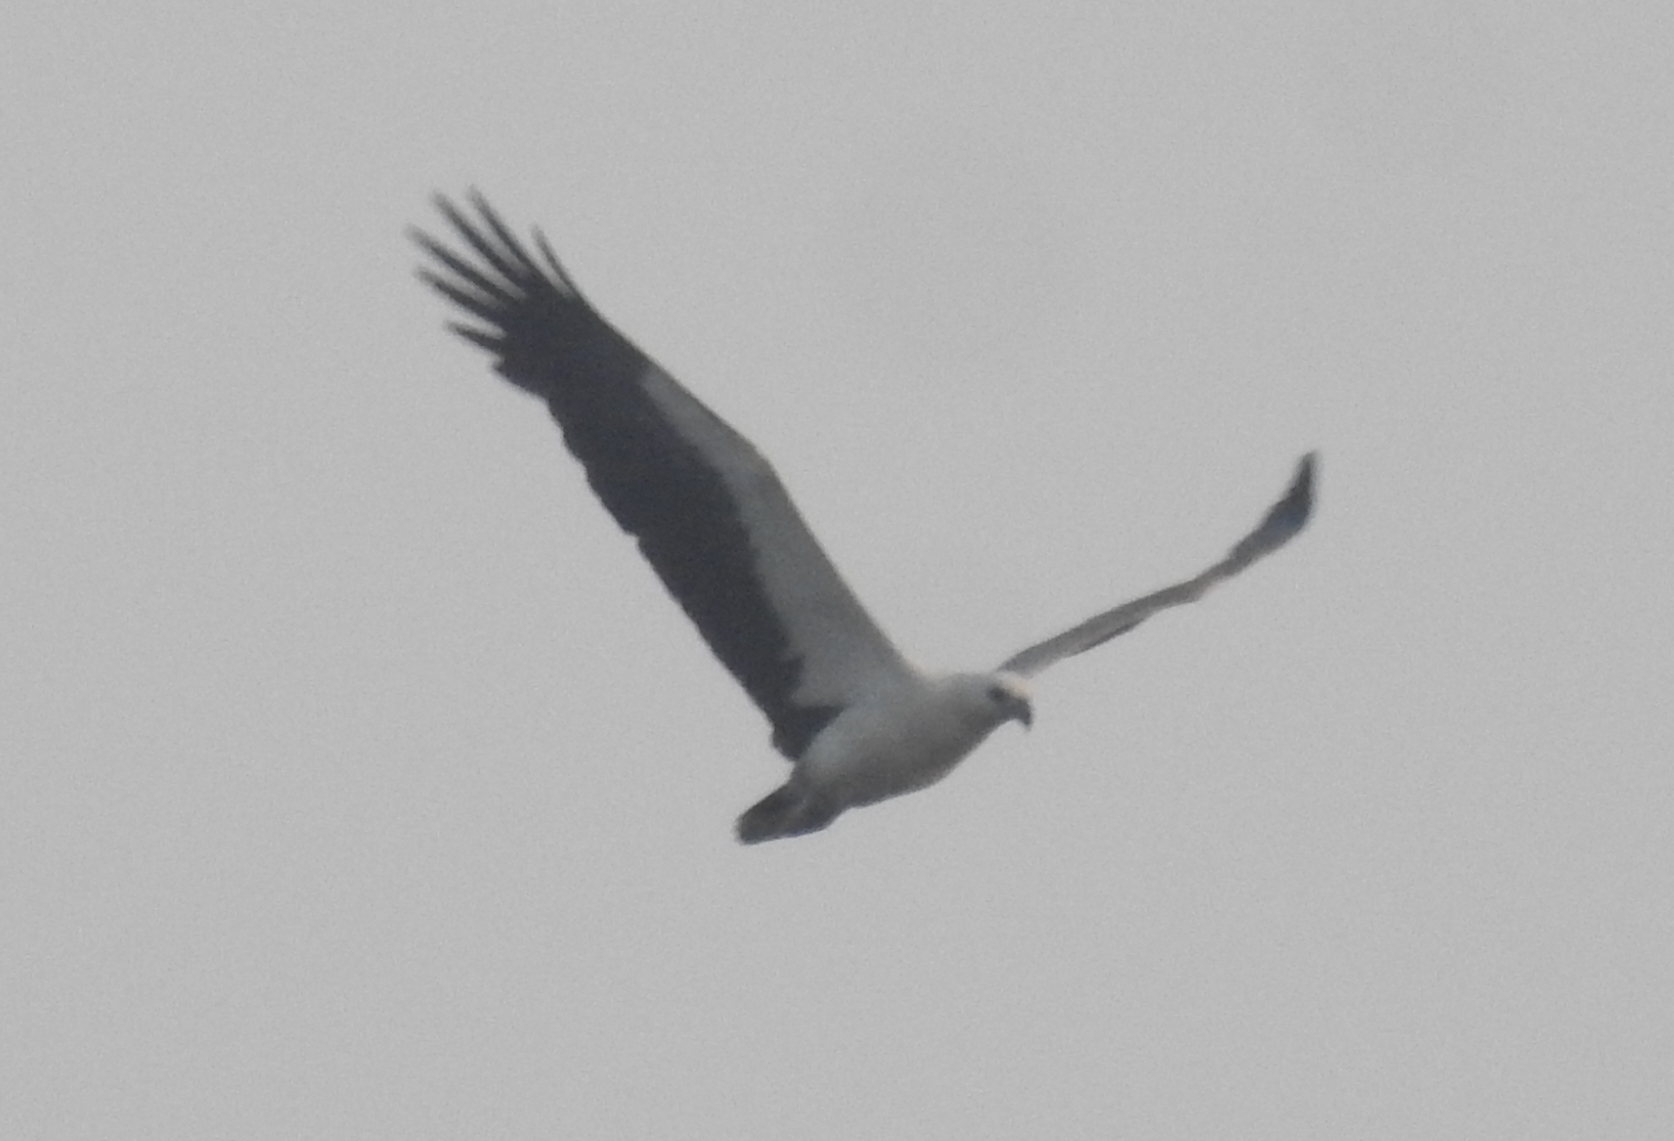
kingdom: Animalia
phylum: Chordata
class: Aves
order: Accipitriformes
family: Accipitridae
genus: Haliaeetus
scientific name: Haliaeetus leucogaster
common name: White-bellied sea eagle
